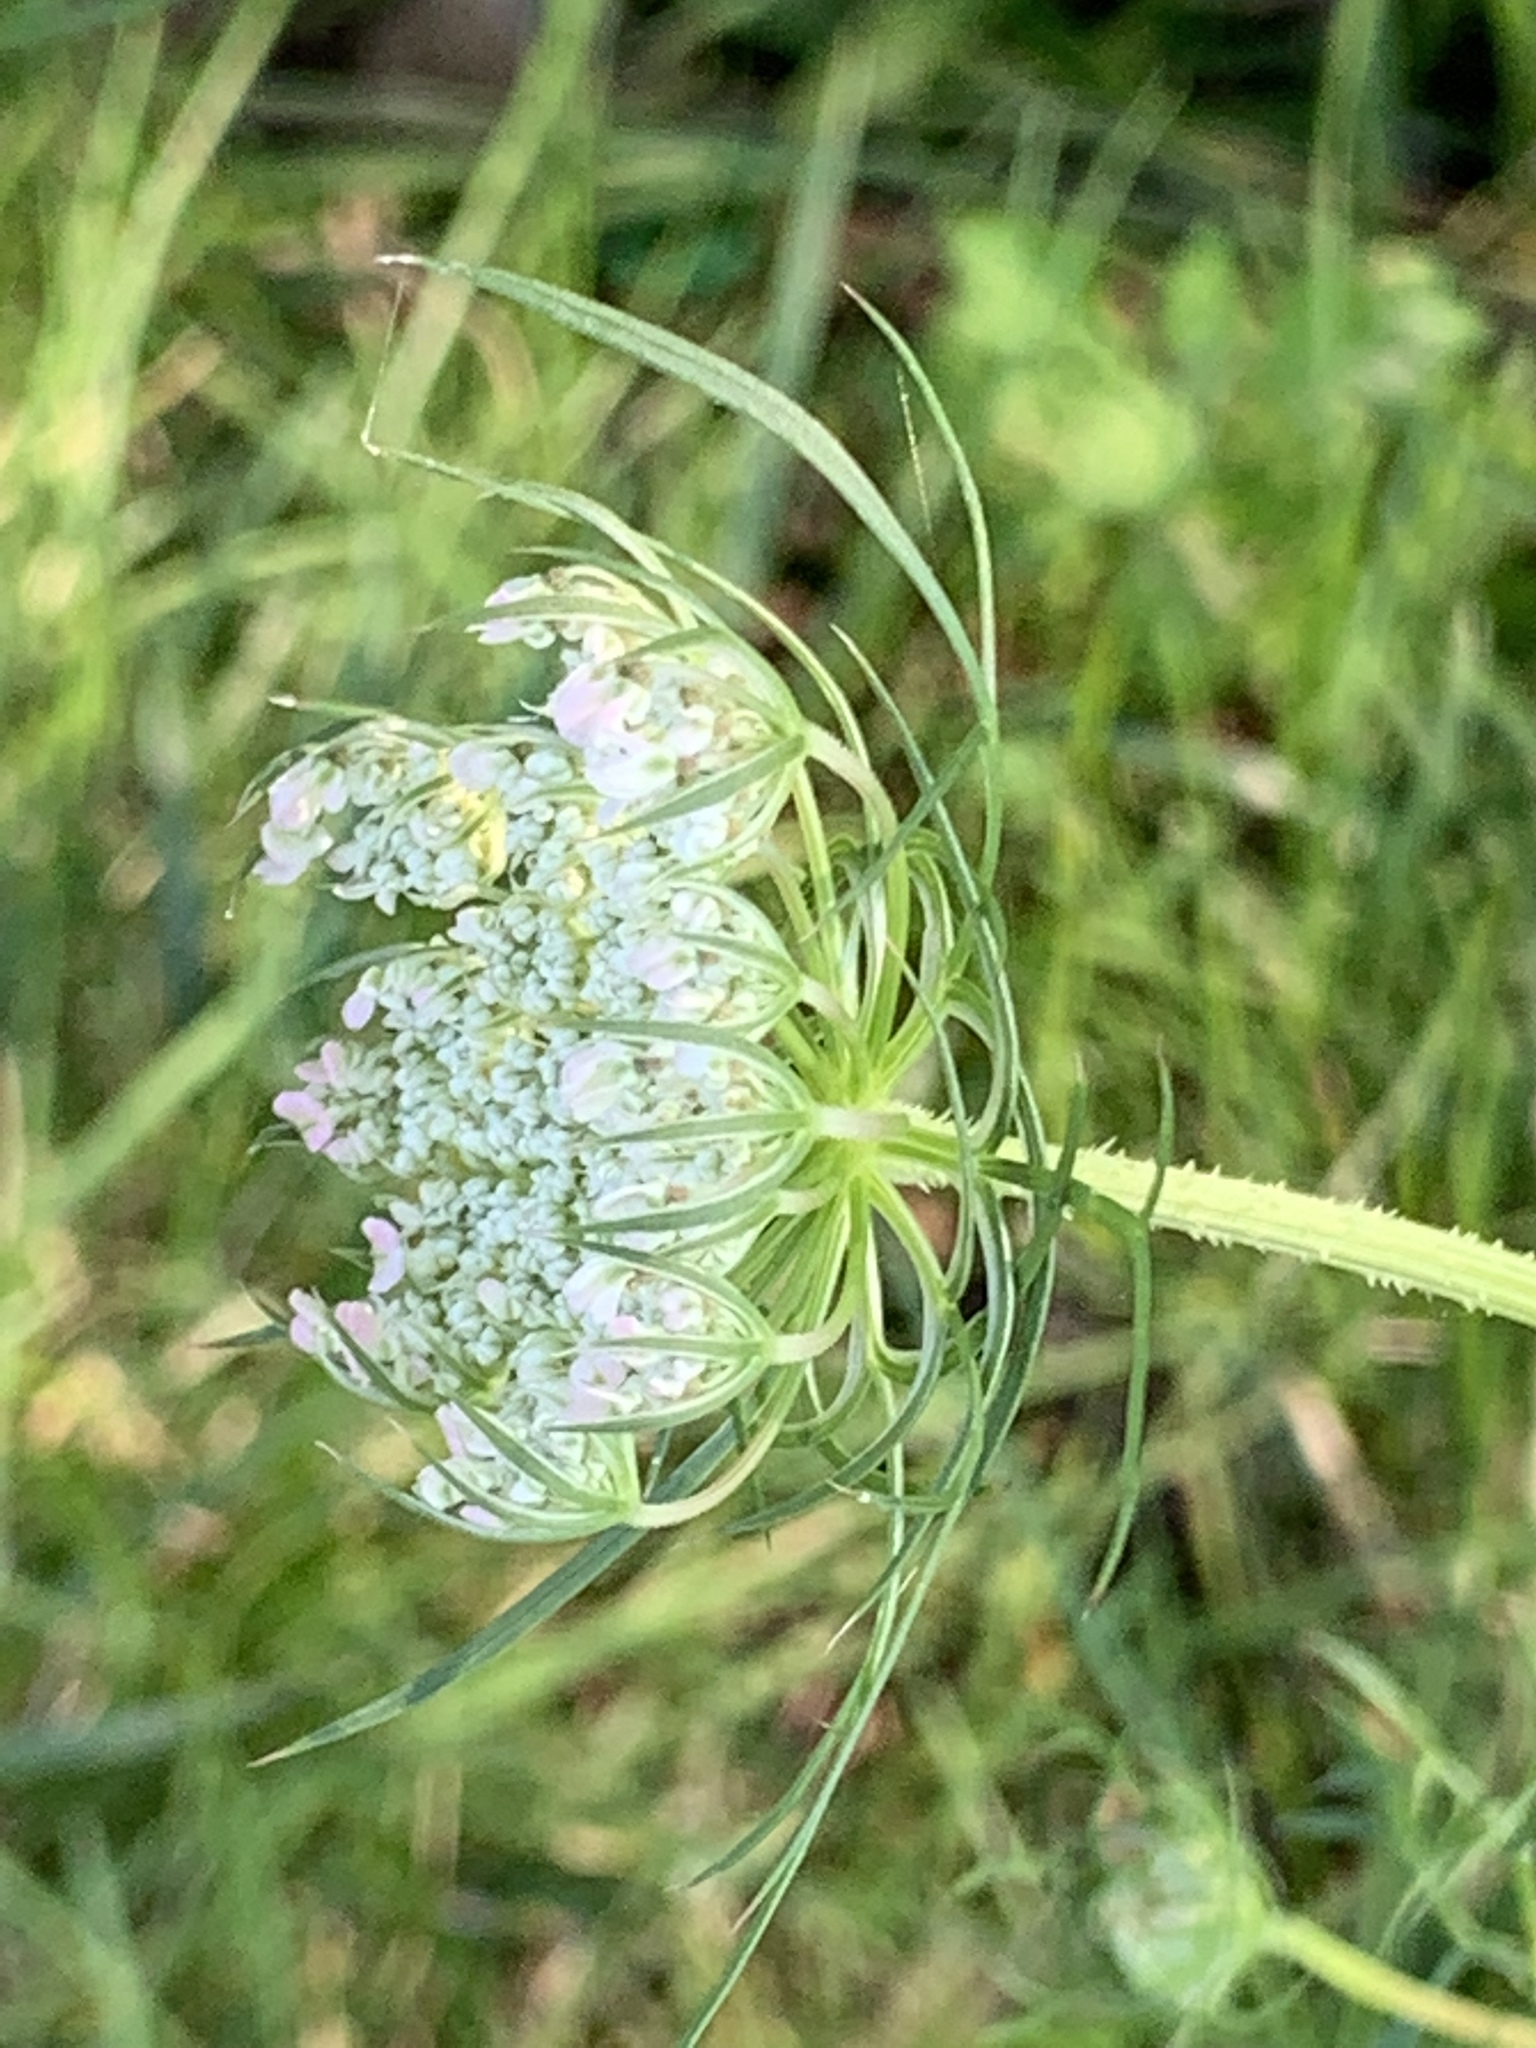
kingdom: Plantae
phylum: Tracheophyta
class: Magnoliopsida
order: Apiales
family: Apiaceae
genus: Daucus
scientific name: Daucus carota
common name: Wild carrot
